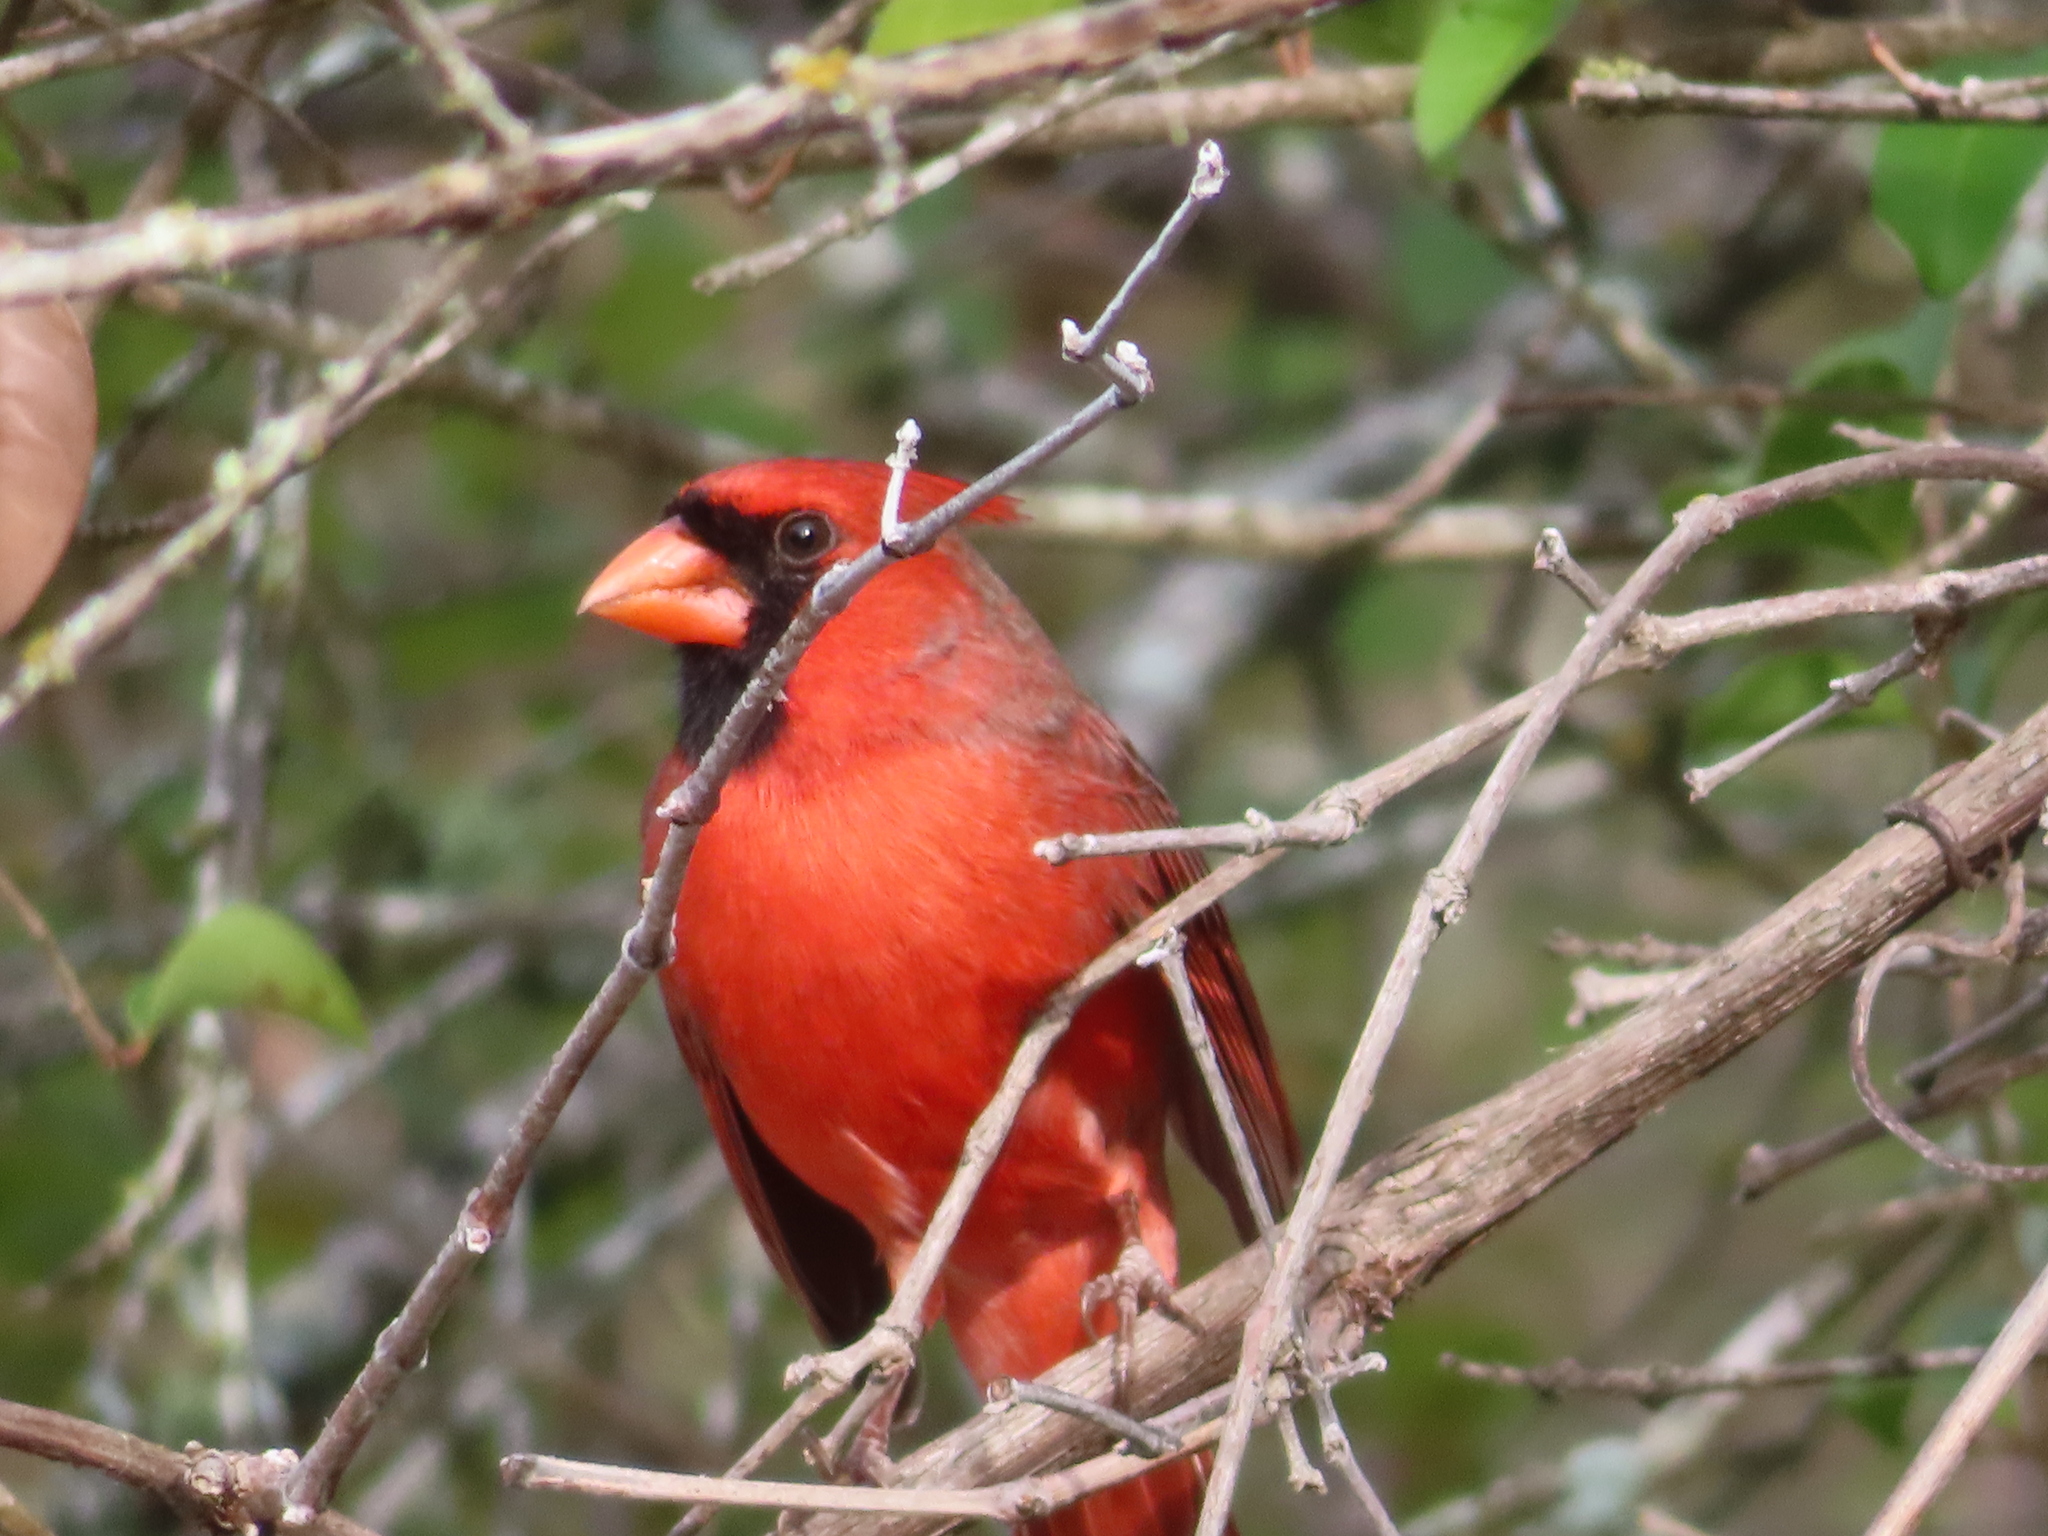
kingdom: Animalia
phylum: Chordata
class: Aves
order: Passeriformes
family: Cardinalidae
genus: Cardinalis
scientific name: Cardinalis cardinalis
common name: Northern cardinal
